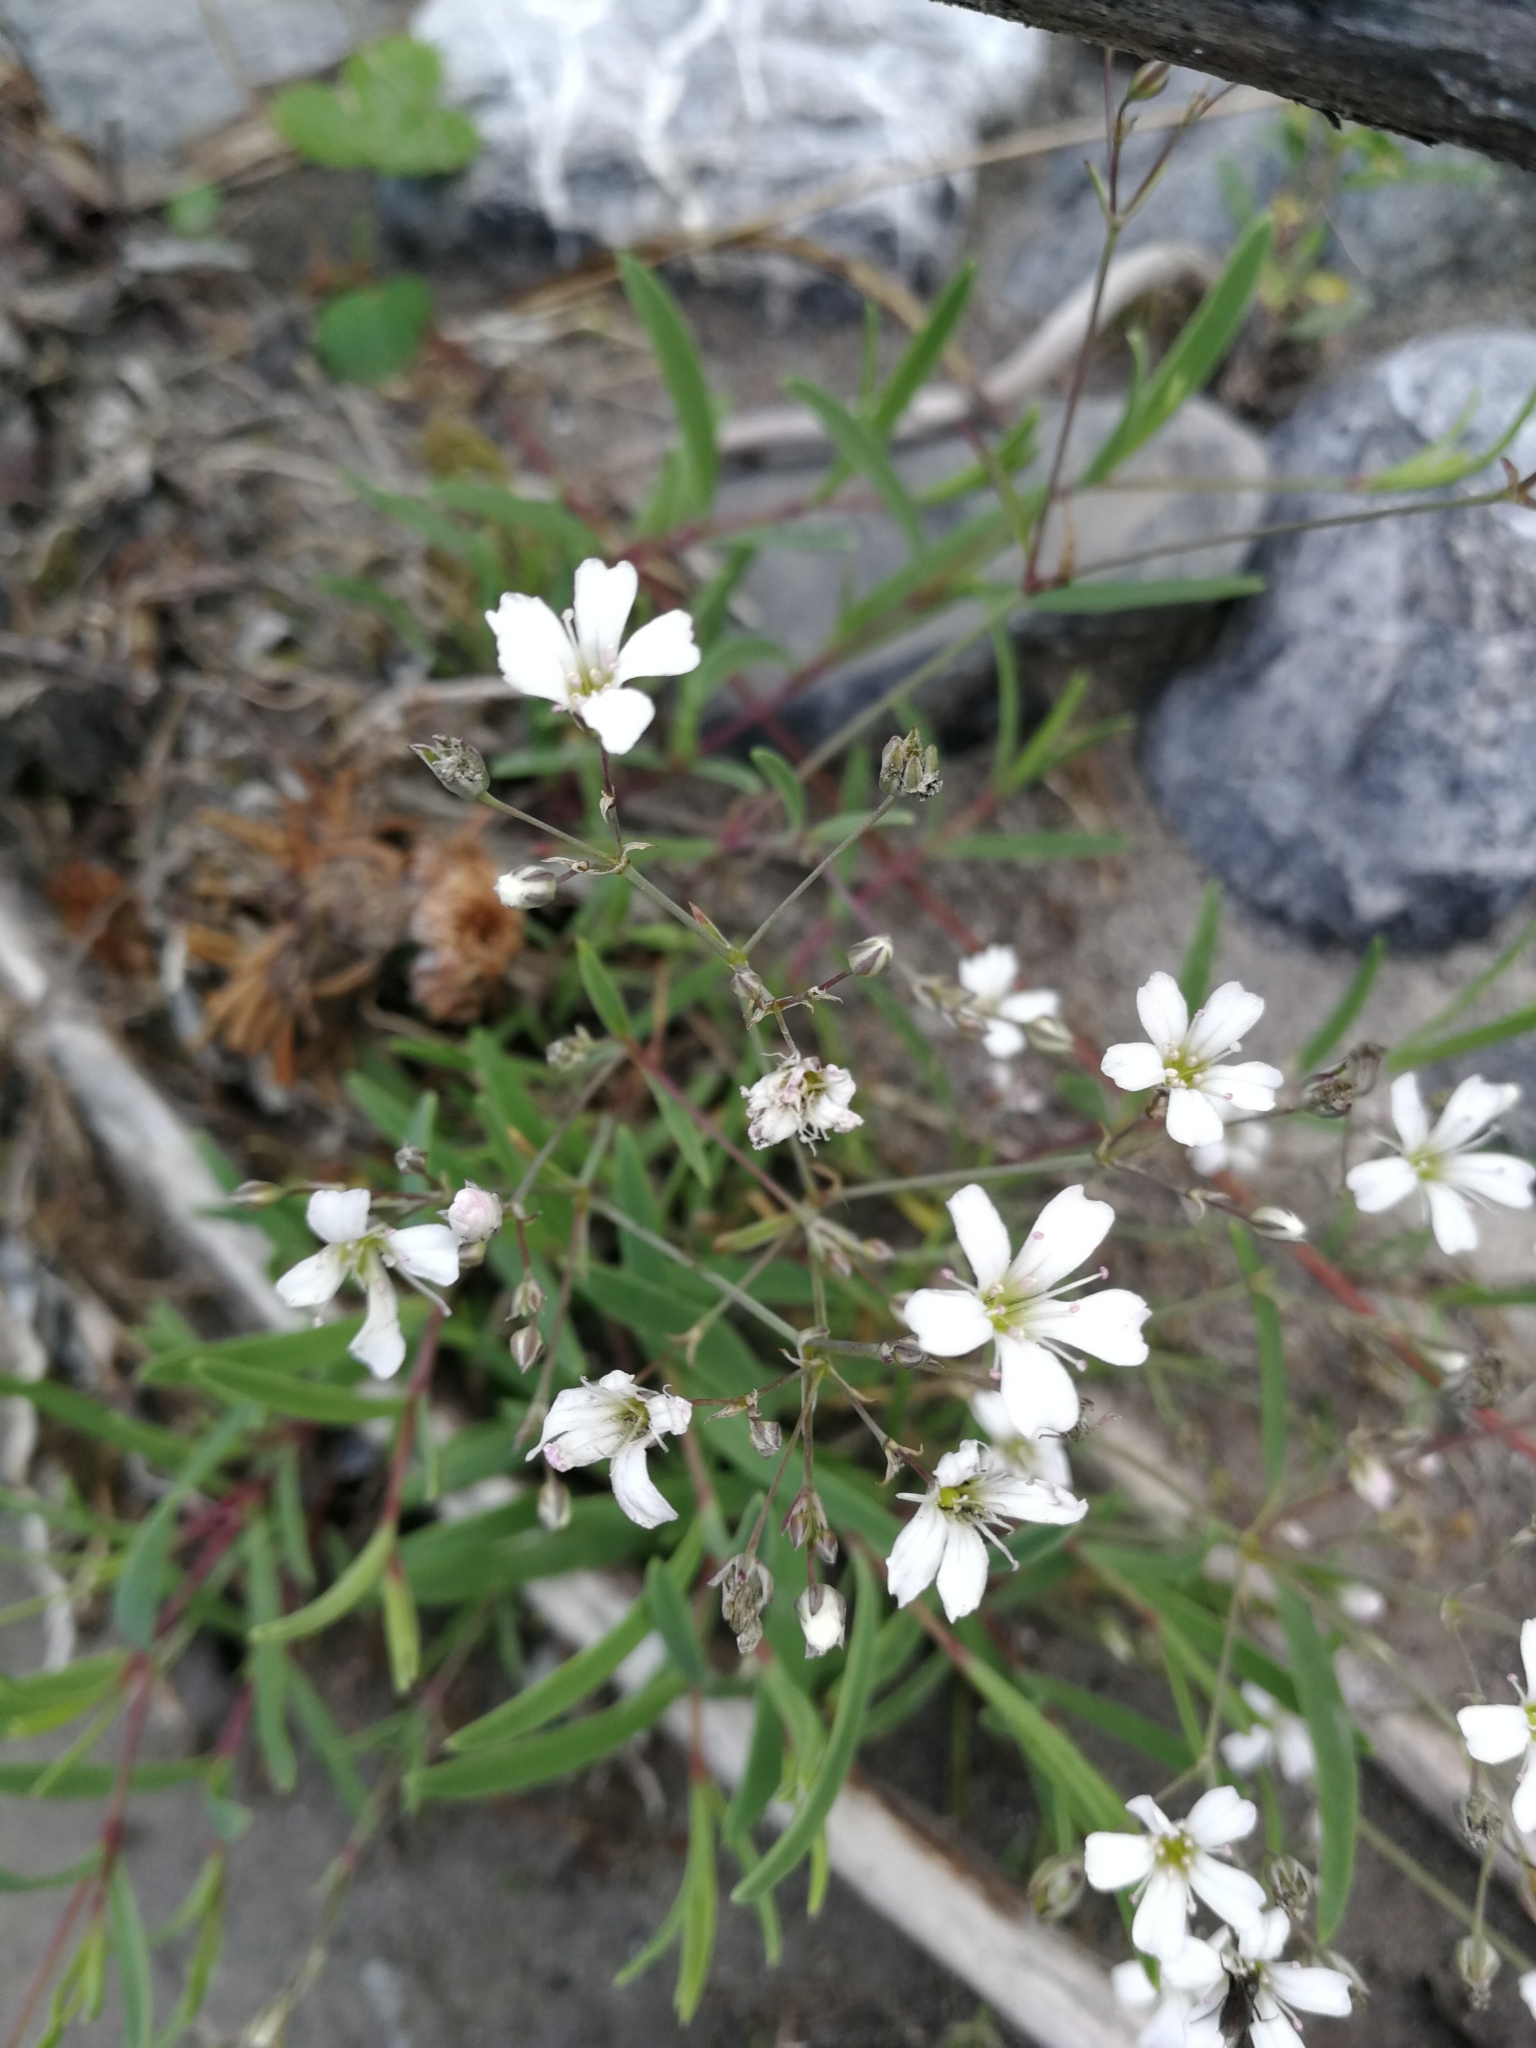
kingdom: Plantae
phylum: Tracheophyta
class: Magnoliopsida
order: Caryophyllales
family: Caryophyllaceae
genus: Gypsophila
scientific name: Gypsophila repens
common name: Creeping baby's-breath
